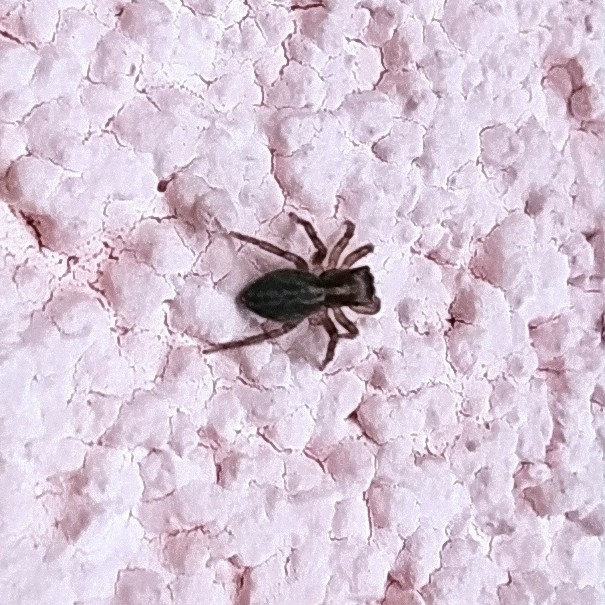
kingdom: Animalia
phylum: Arthropoda
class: Arachnida
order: Araneae
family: Salticidae
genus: Saitis
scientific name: Saitis tauricus
